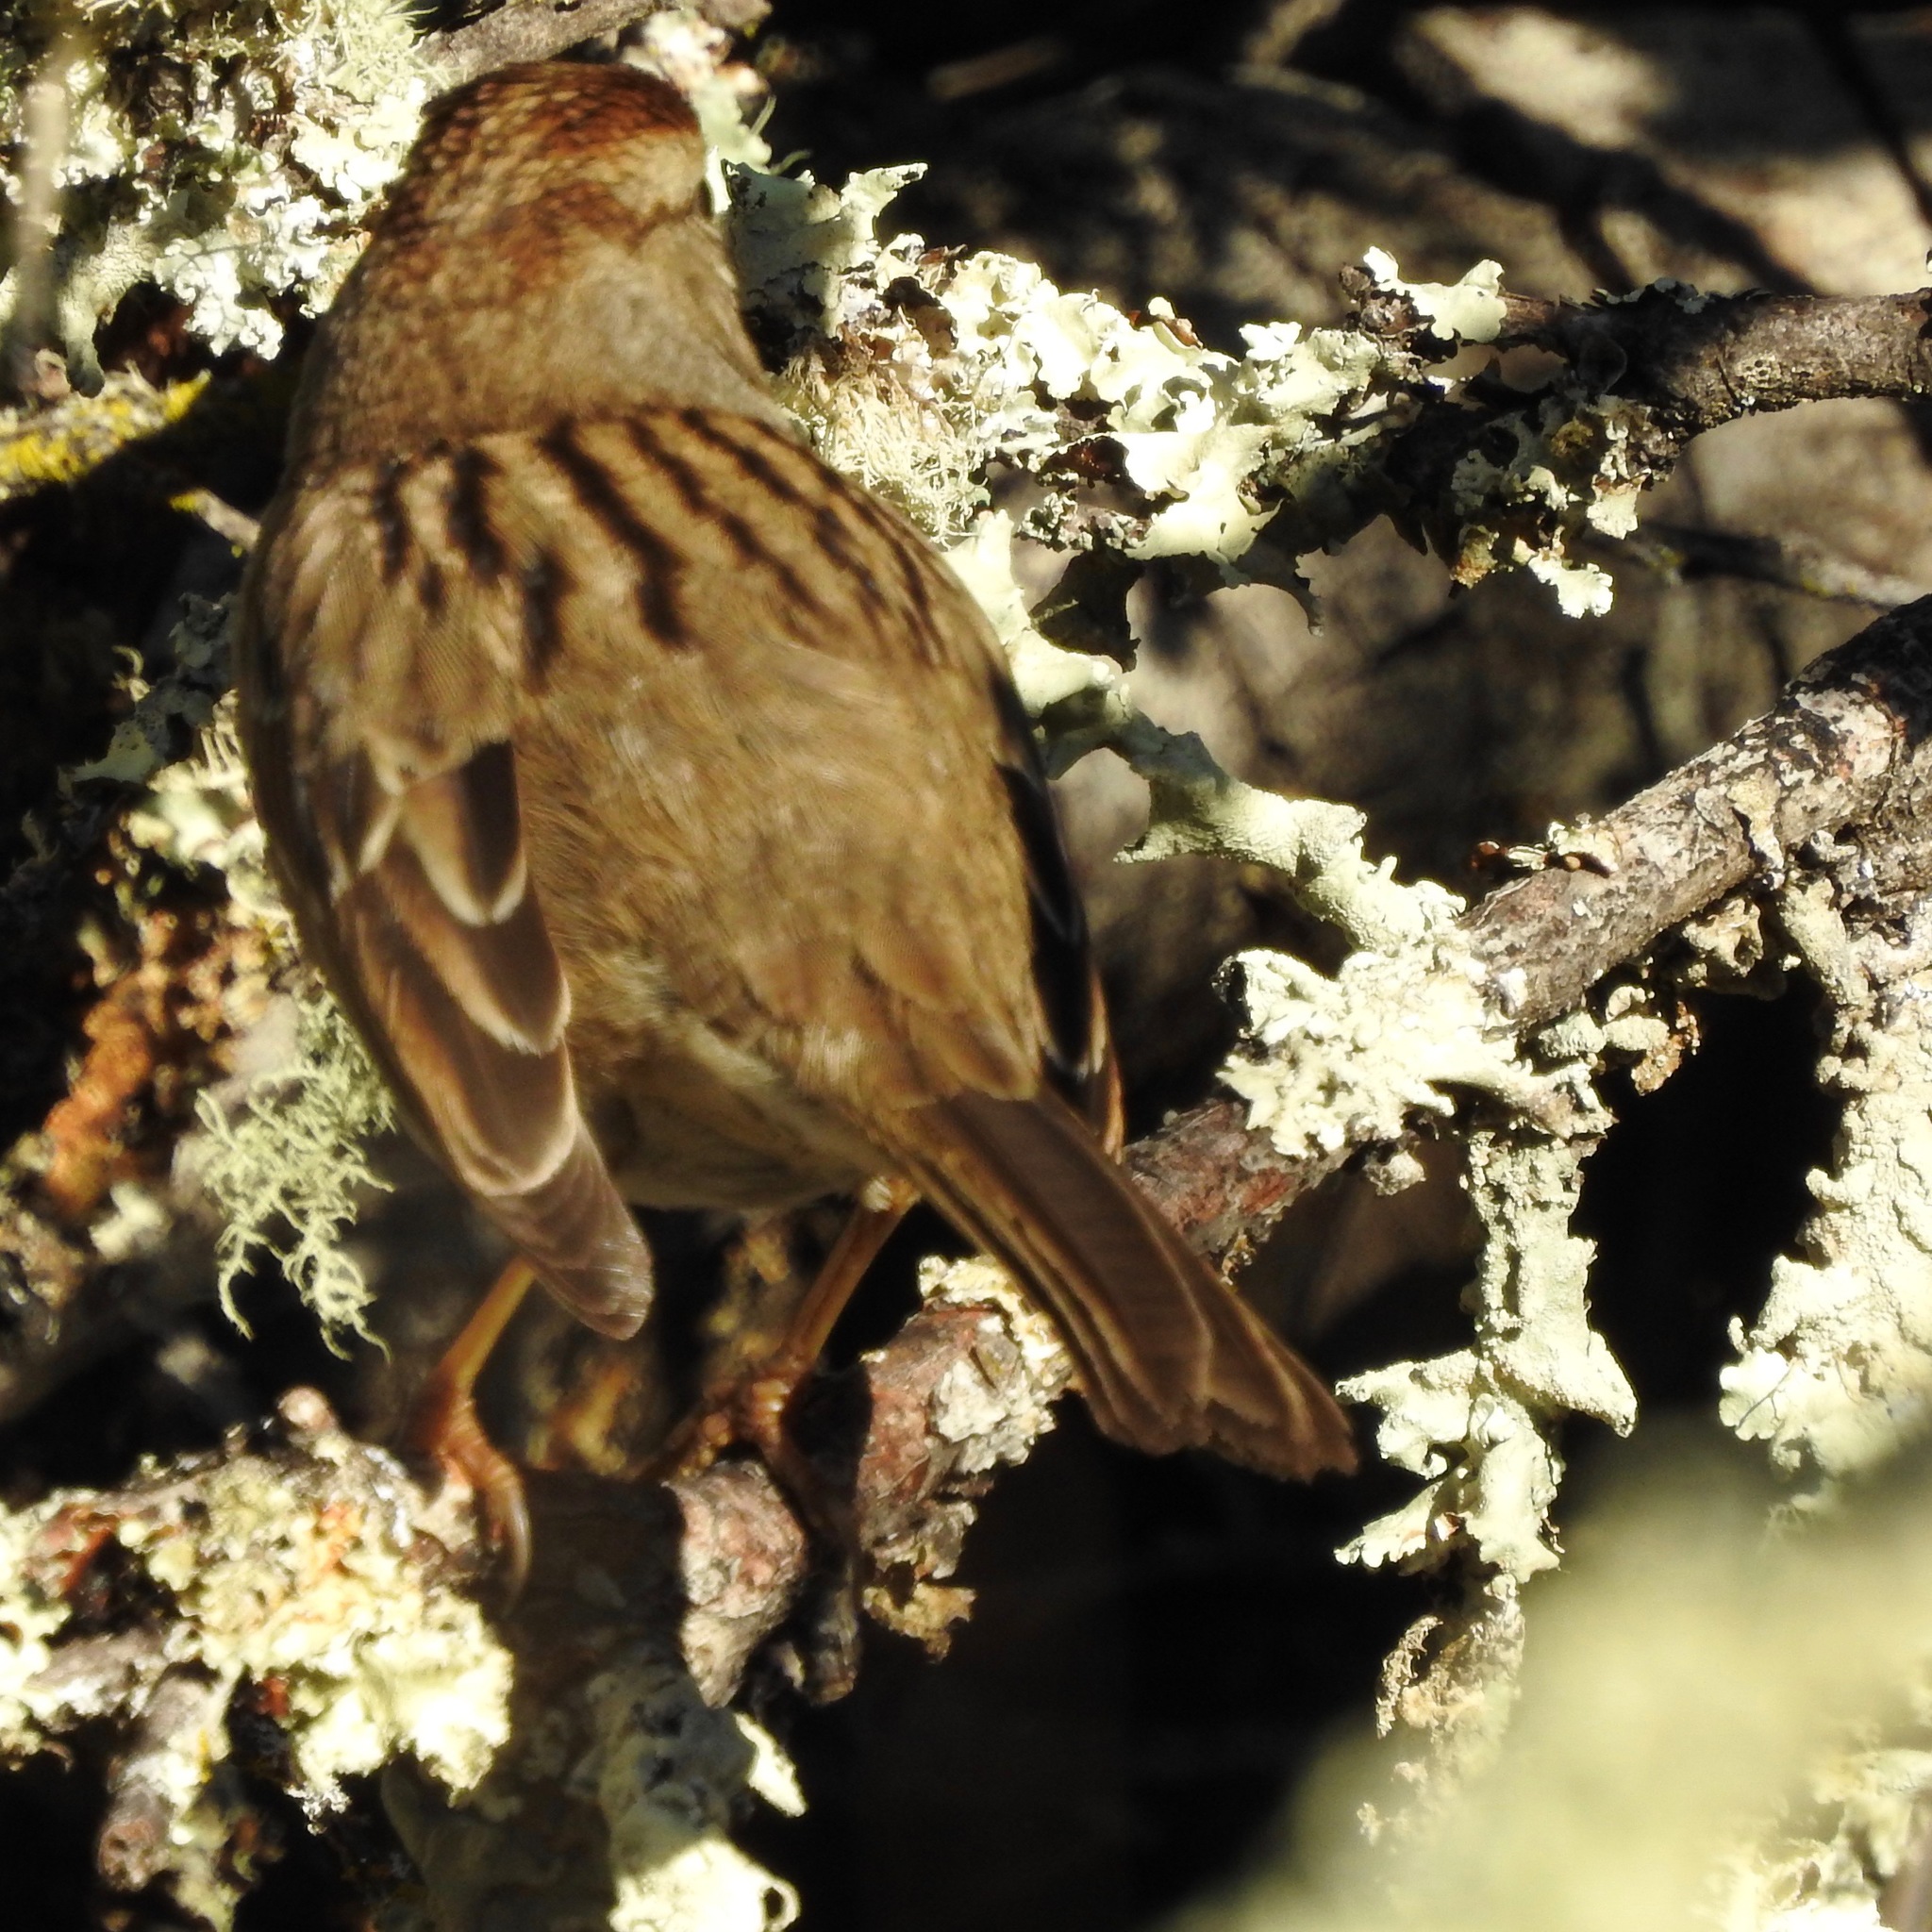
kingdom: Animalia
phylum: Chordata
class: Aves
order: Passeriformes
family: Passerellidae
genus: Zonotrichia
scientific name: Zonotrichia leucophrys
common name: White-crowned sparrow
